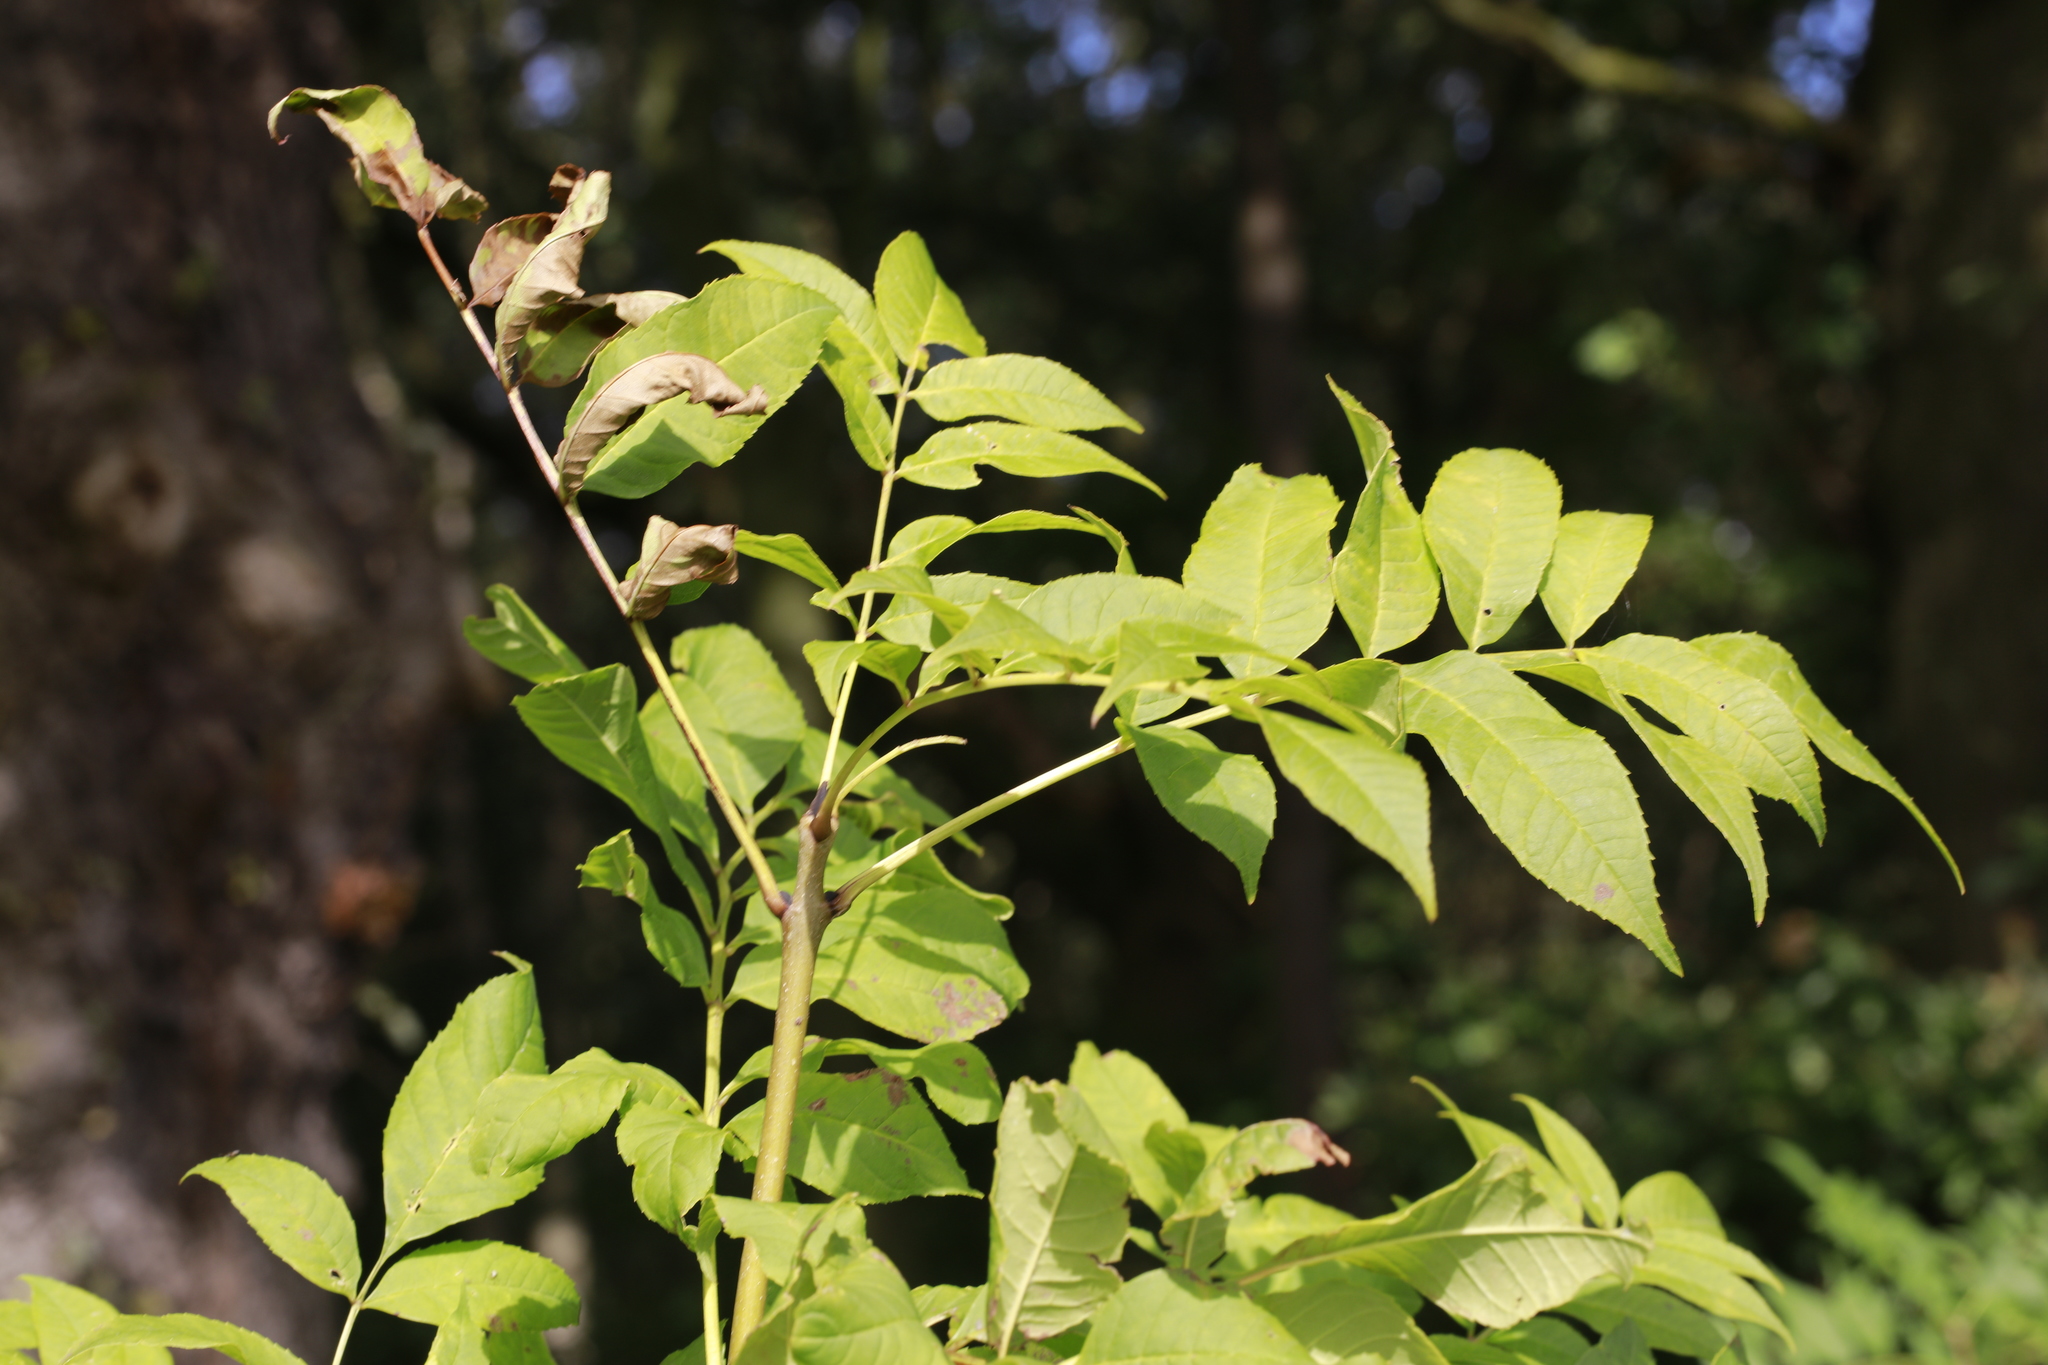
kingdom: Plantae
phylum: Tracheophyta
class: Magnoliopsida
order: Lamiales
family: Oleaceae
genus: Fraxinus
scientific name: Fraxinus excelsior
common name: European ash
